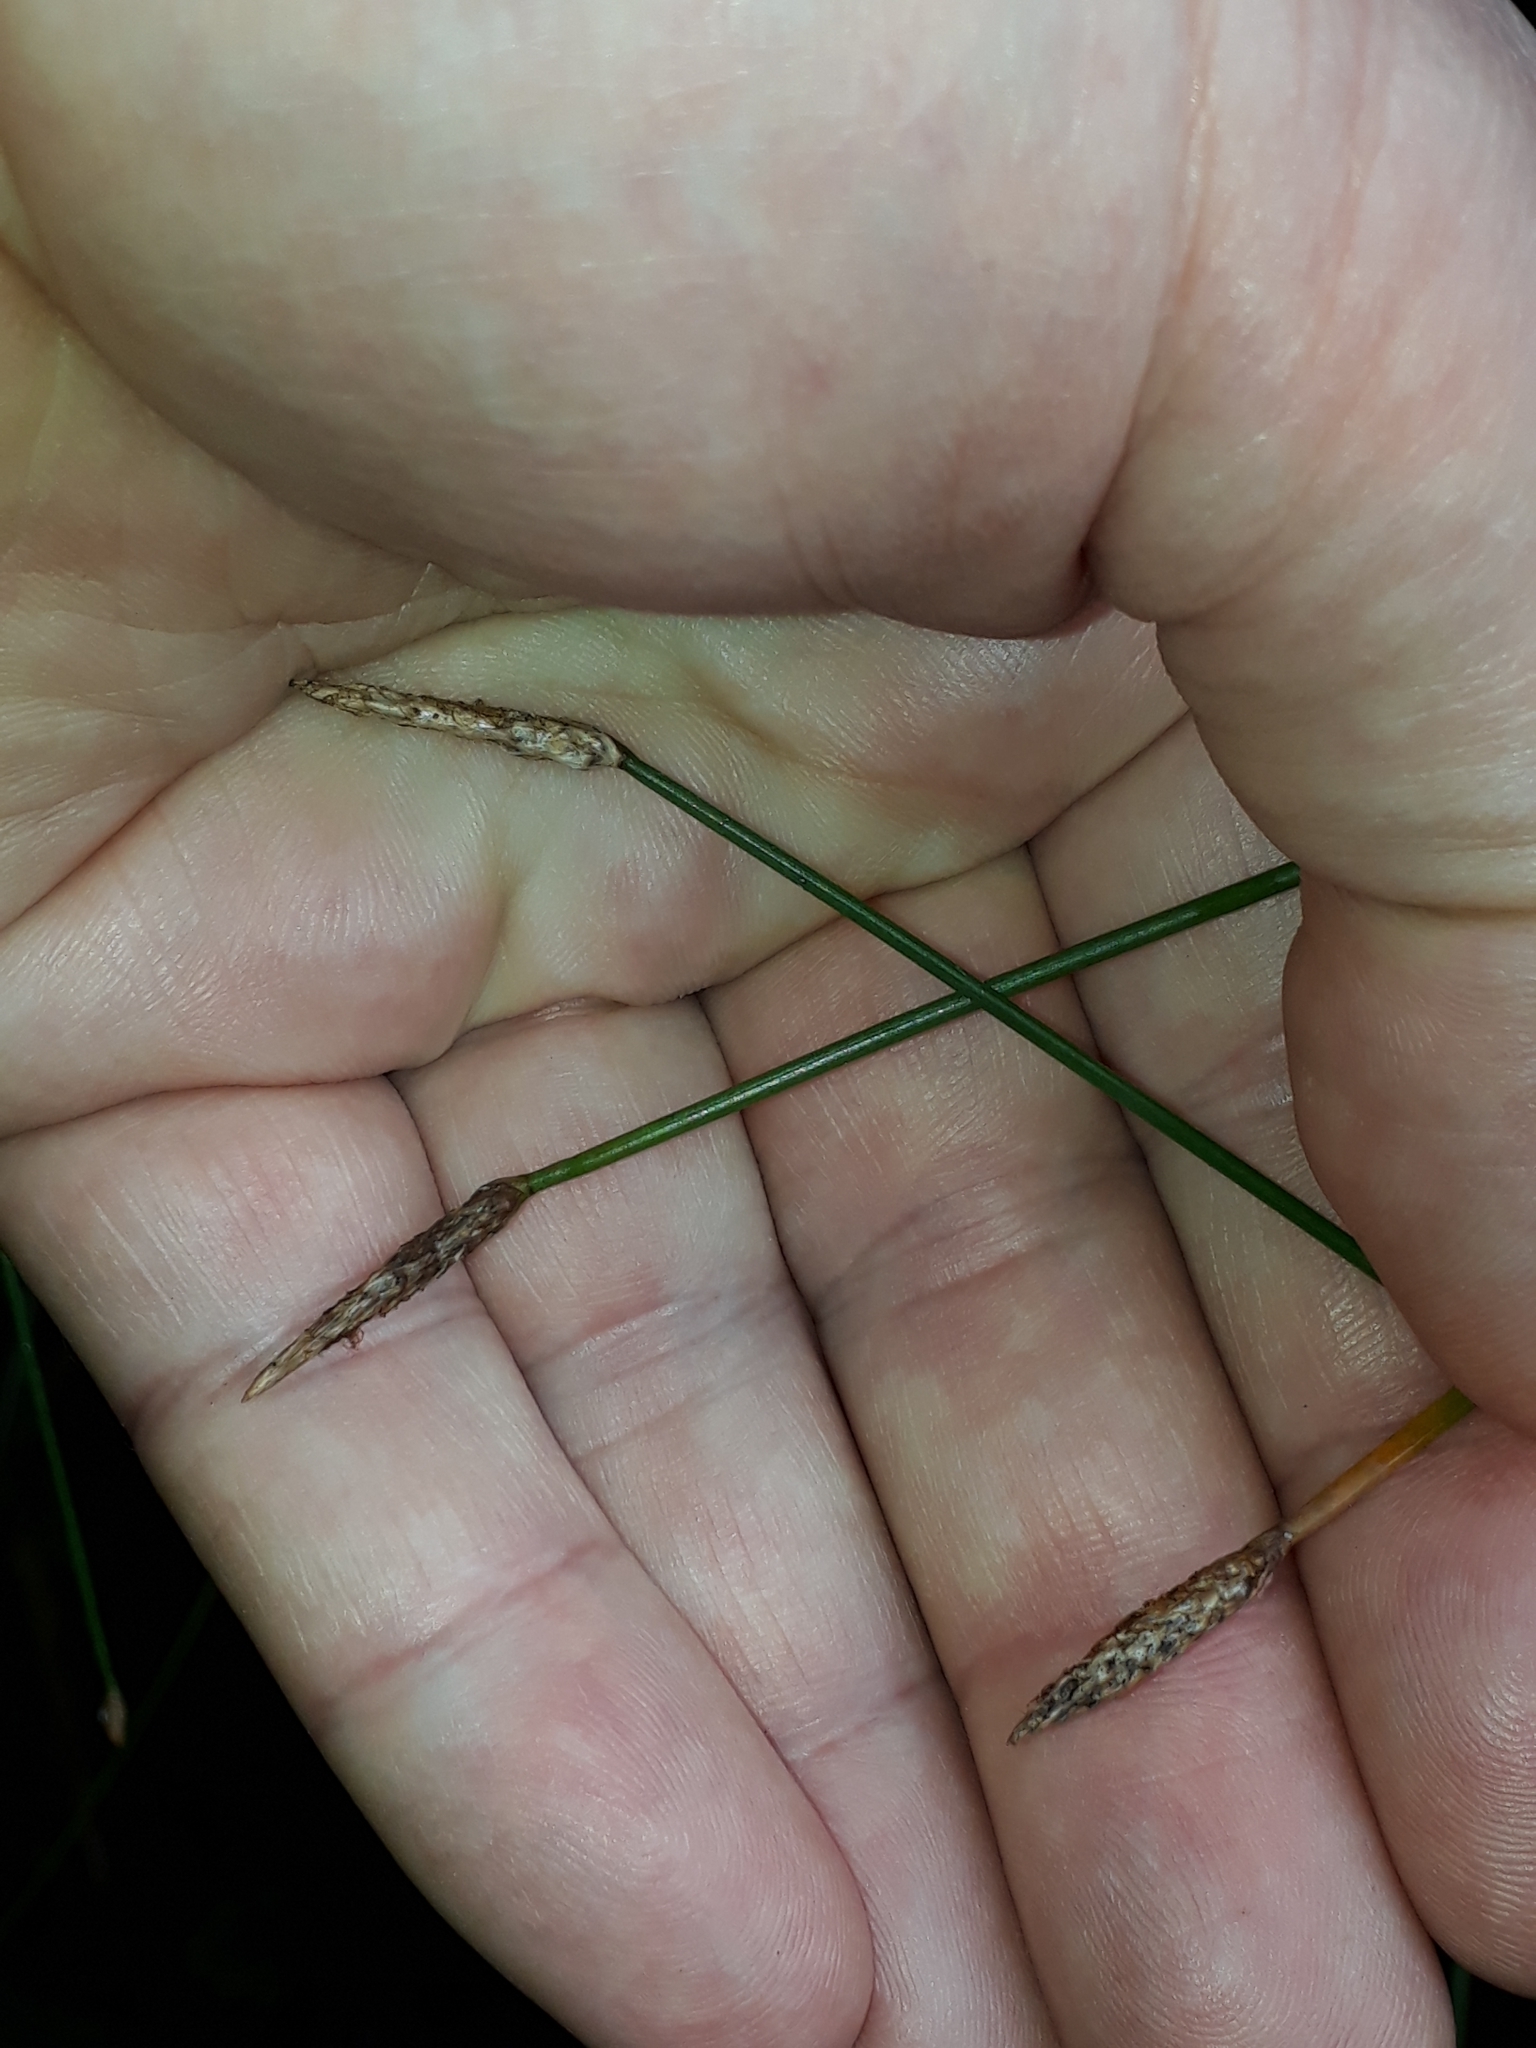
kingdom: Plantae
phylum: Tracheophyta
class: Liliopsida
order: Poales
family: Cyperaceae
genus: Eleocharis
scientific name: Eleocharis acuta
